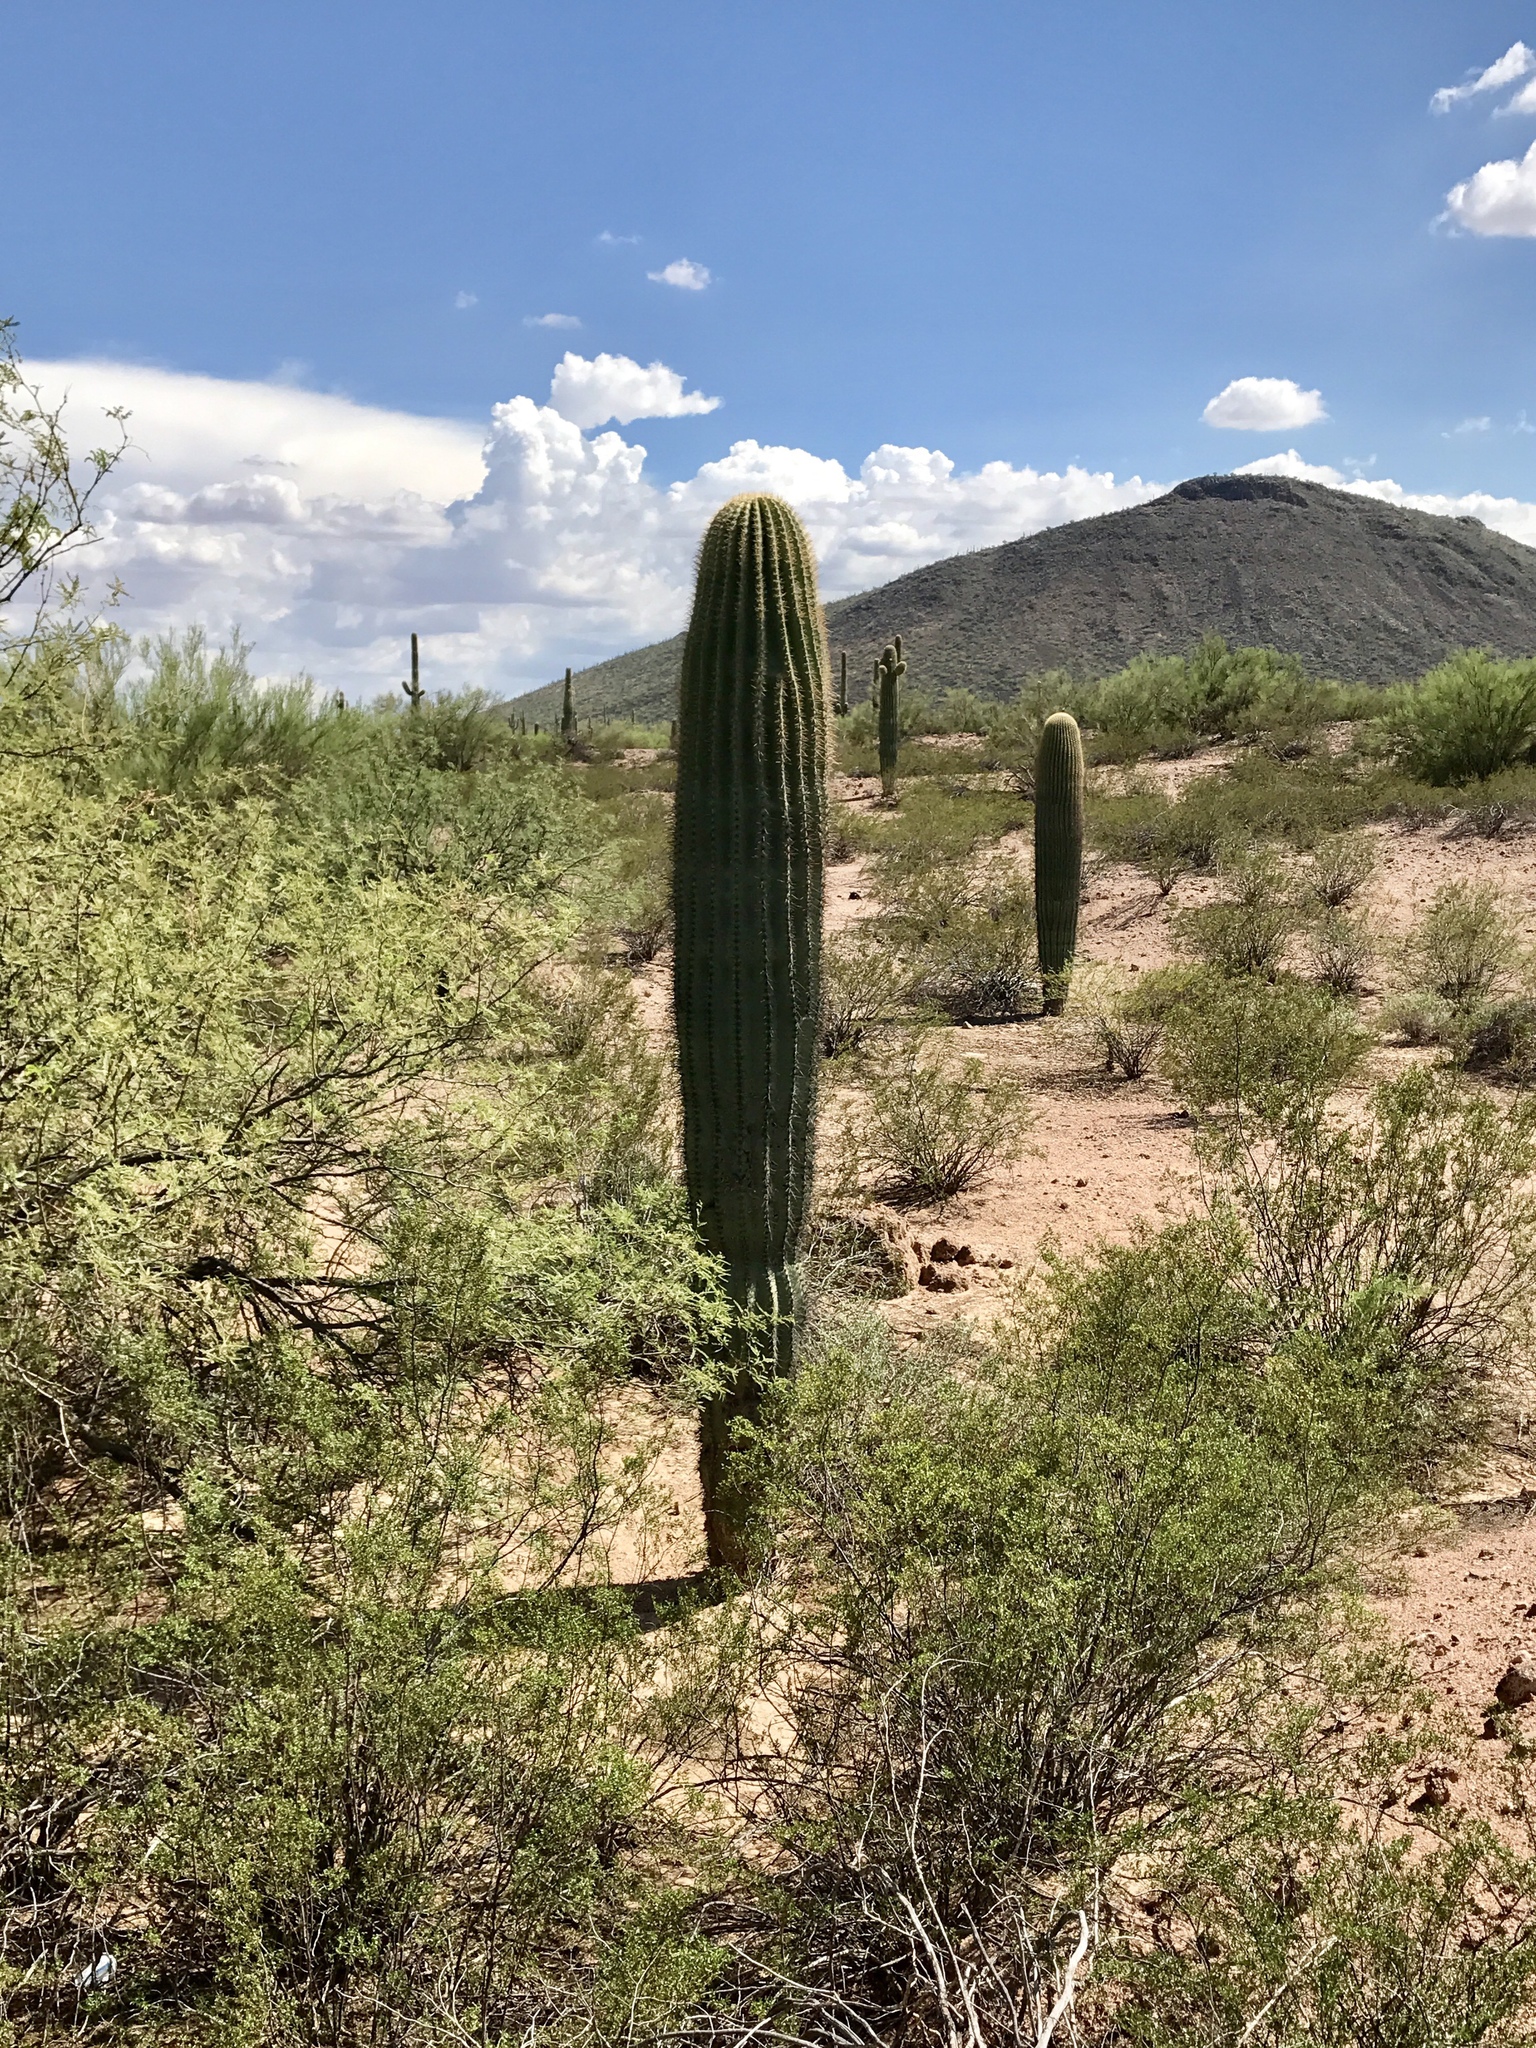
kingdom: Plantae
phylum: Tracheophyta
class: Magnoliopsida
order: Caryophyllales
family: Cactaceae
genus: Carnegiea
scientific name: Carnegiea gigantea
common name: Saguaro
